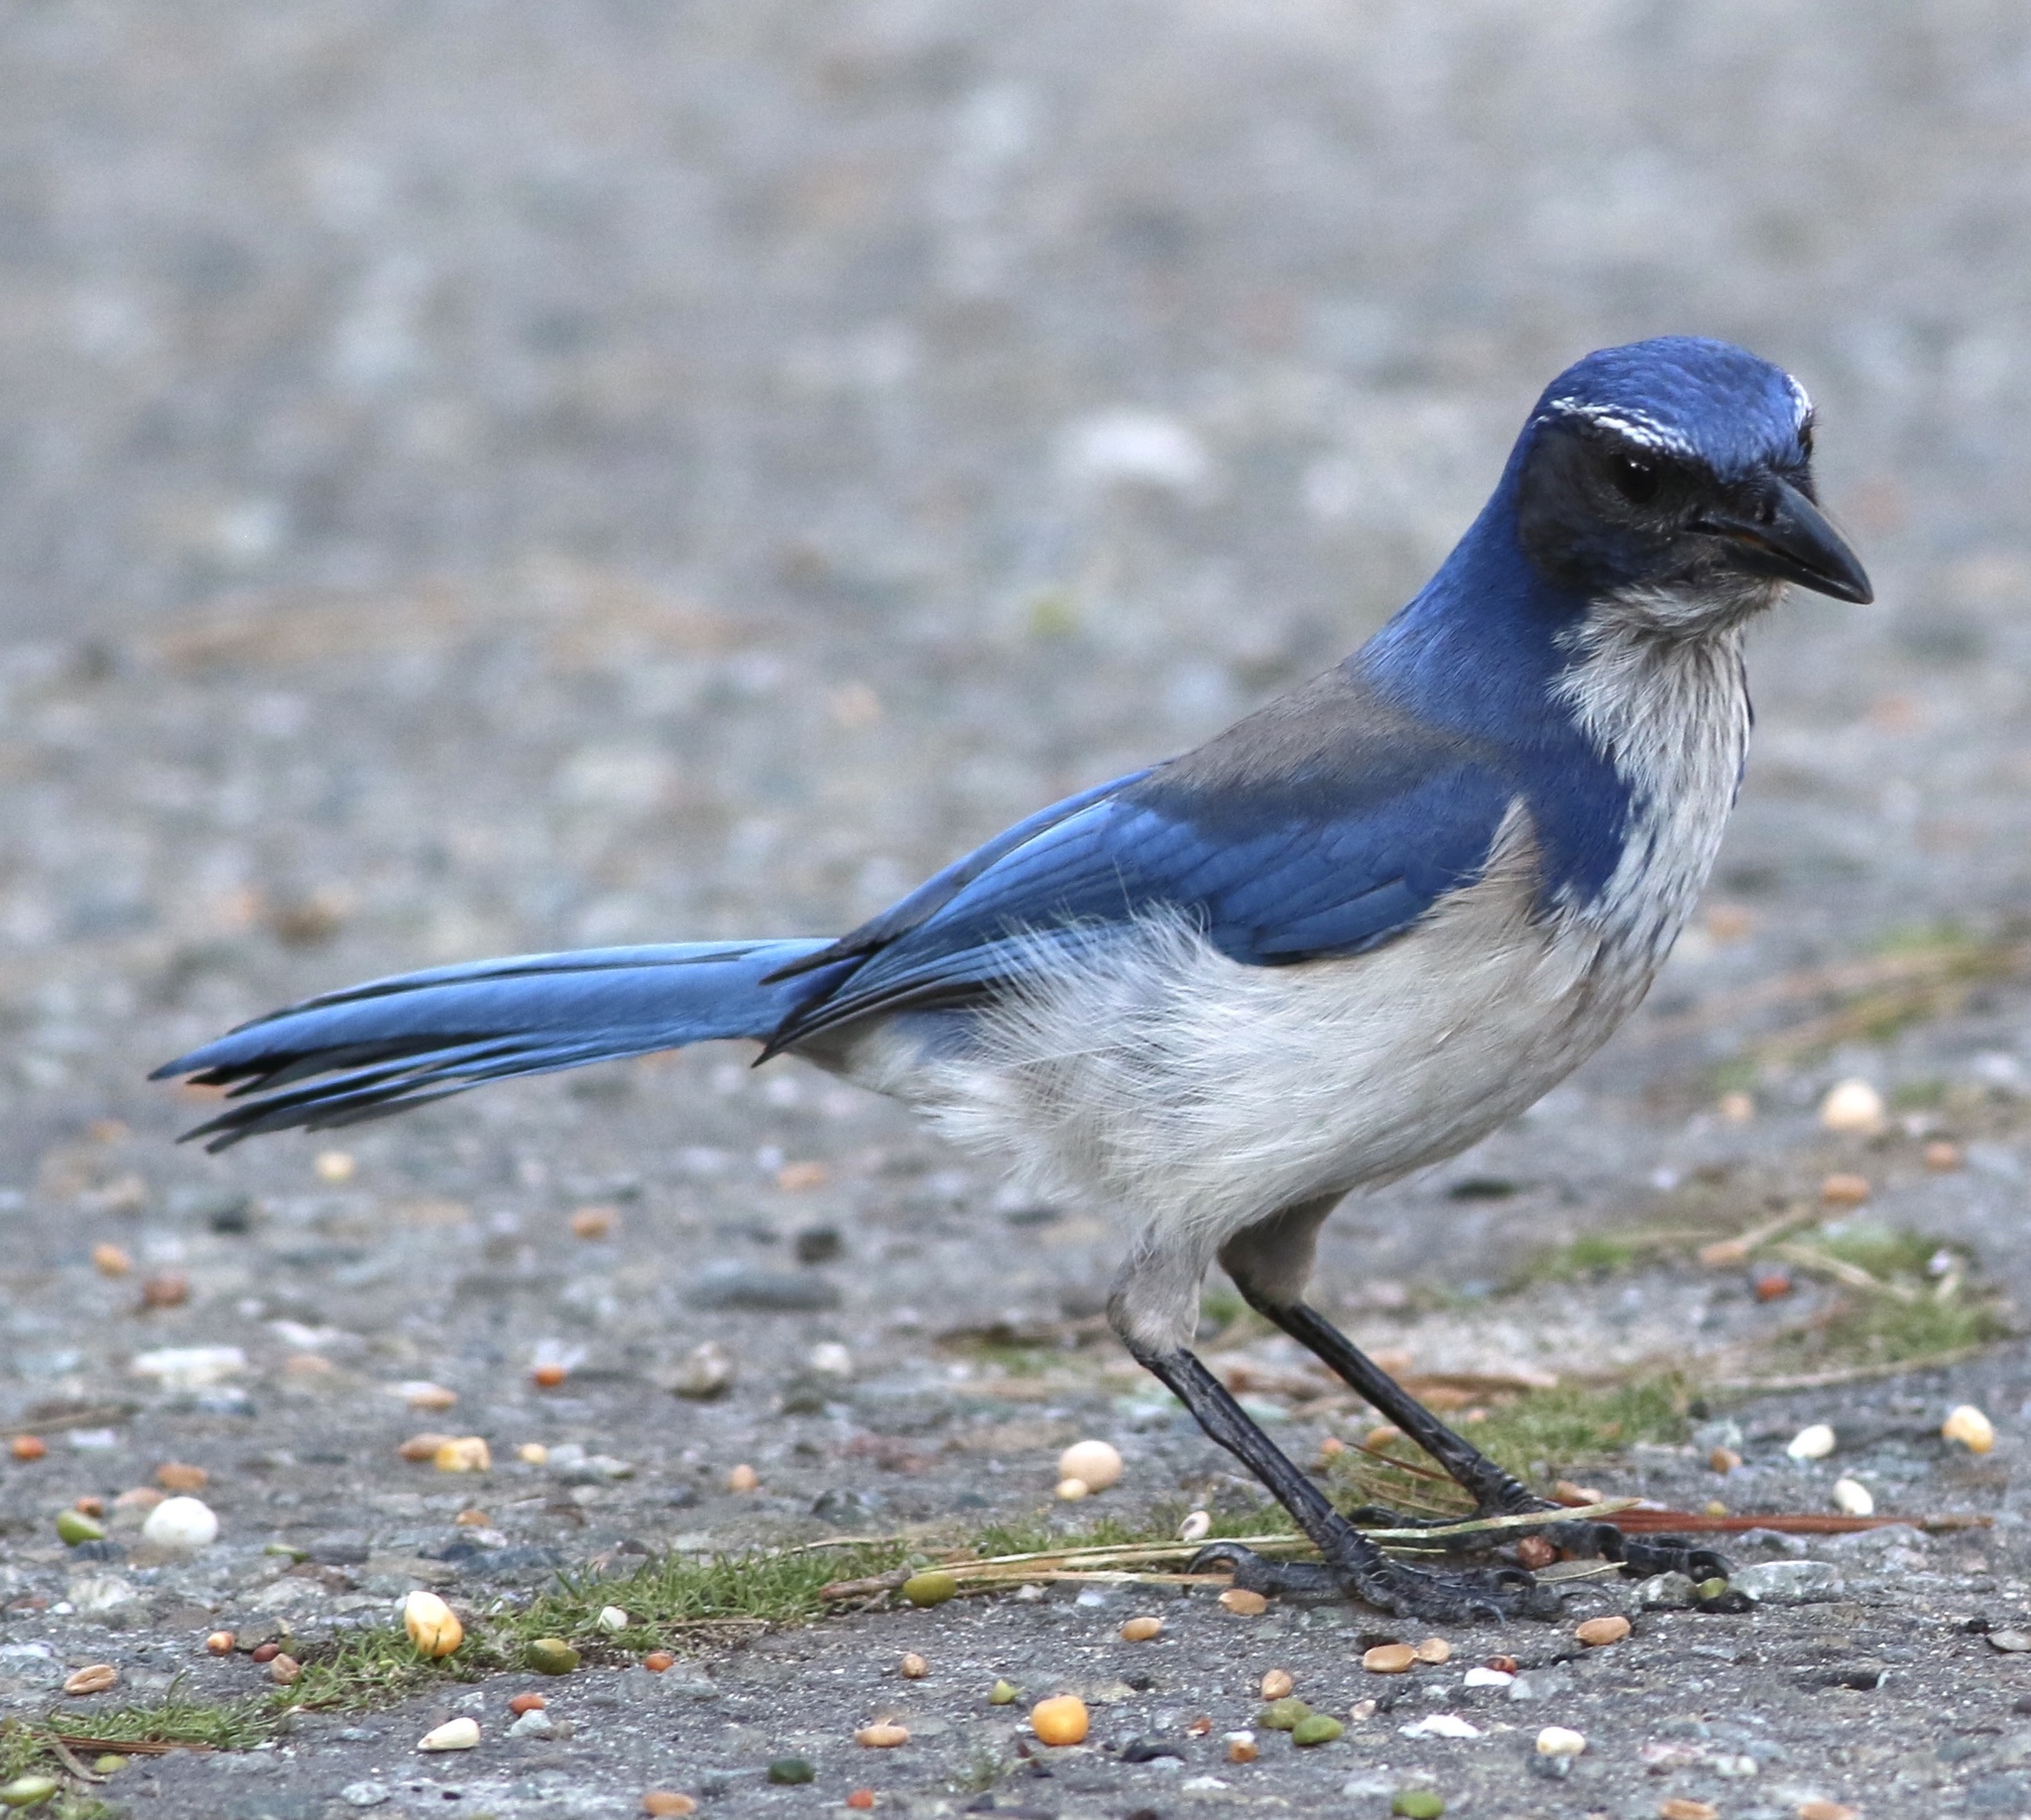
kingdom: Animalia
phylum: Chordata
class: Aves
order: Passeriformes
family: Corvidae
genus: Aphelocoma
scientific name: Aphelocoma californica
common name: California scrub-jay
